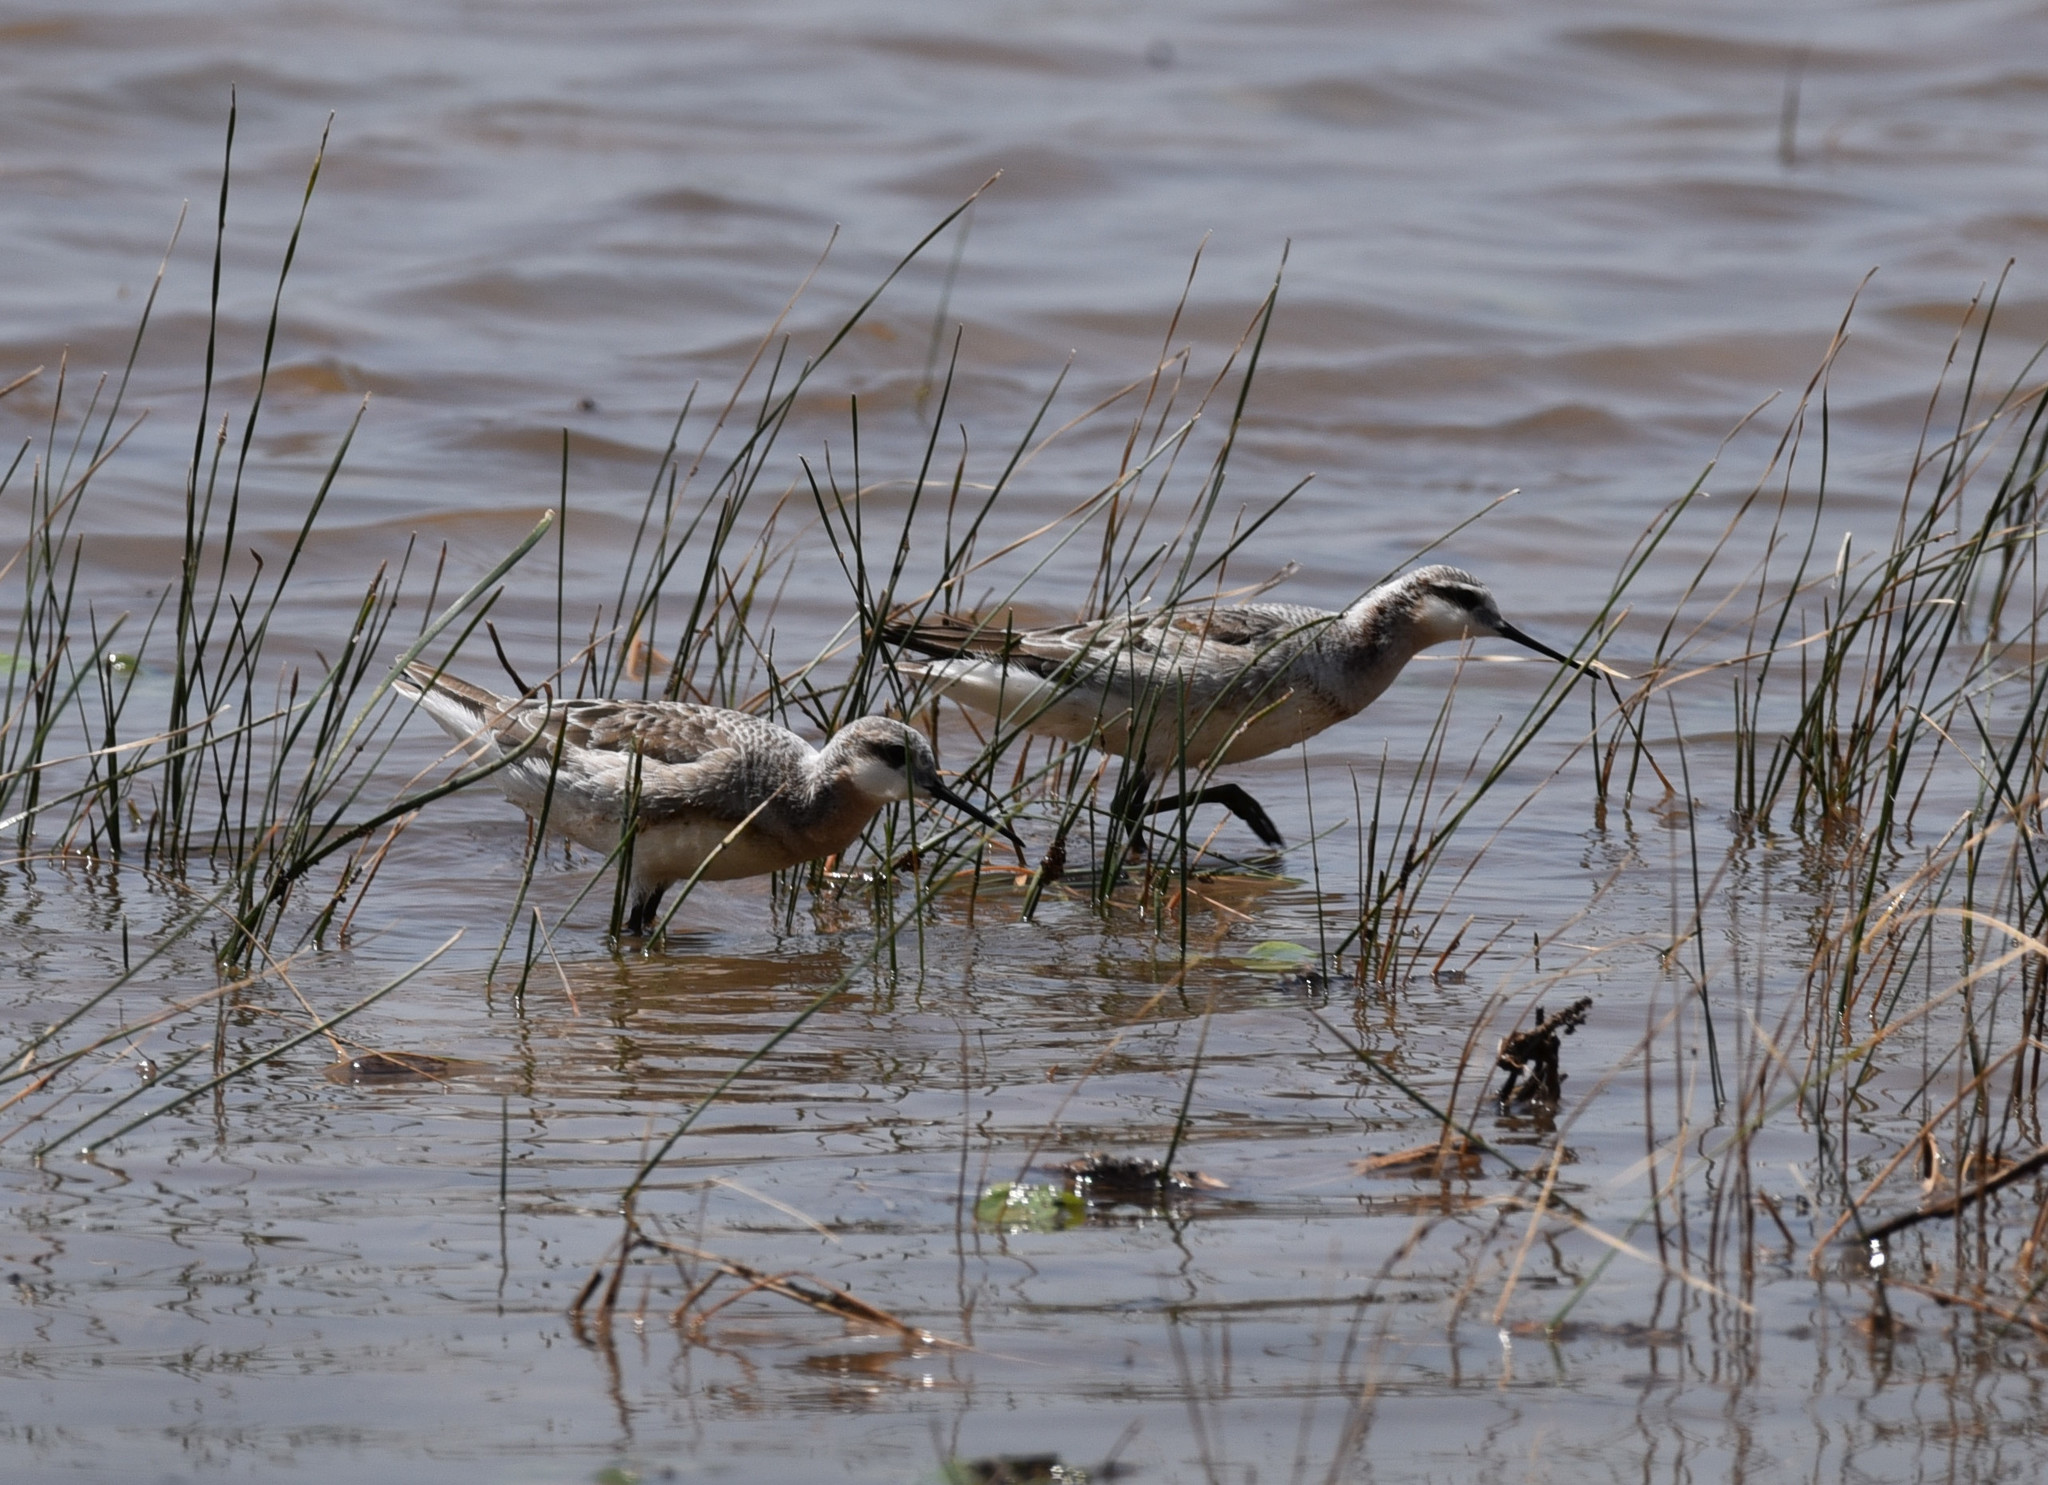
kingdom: Animalia
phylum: Chordata
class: Aves
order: Charadriiformes
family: Scolopacidae
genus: Phalaropus
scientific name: Phalaropus tricolor
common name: Wilson's phalarope
